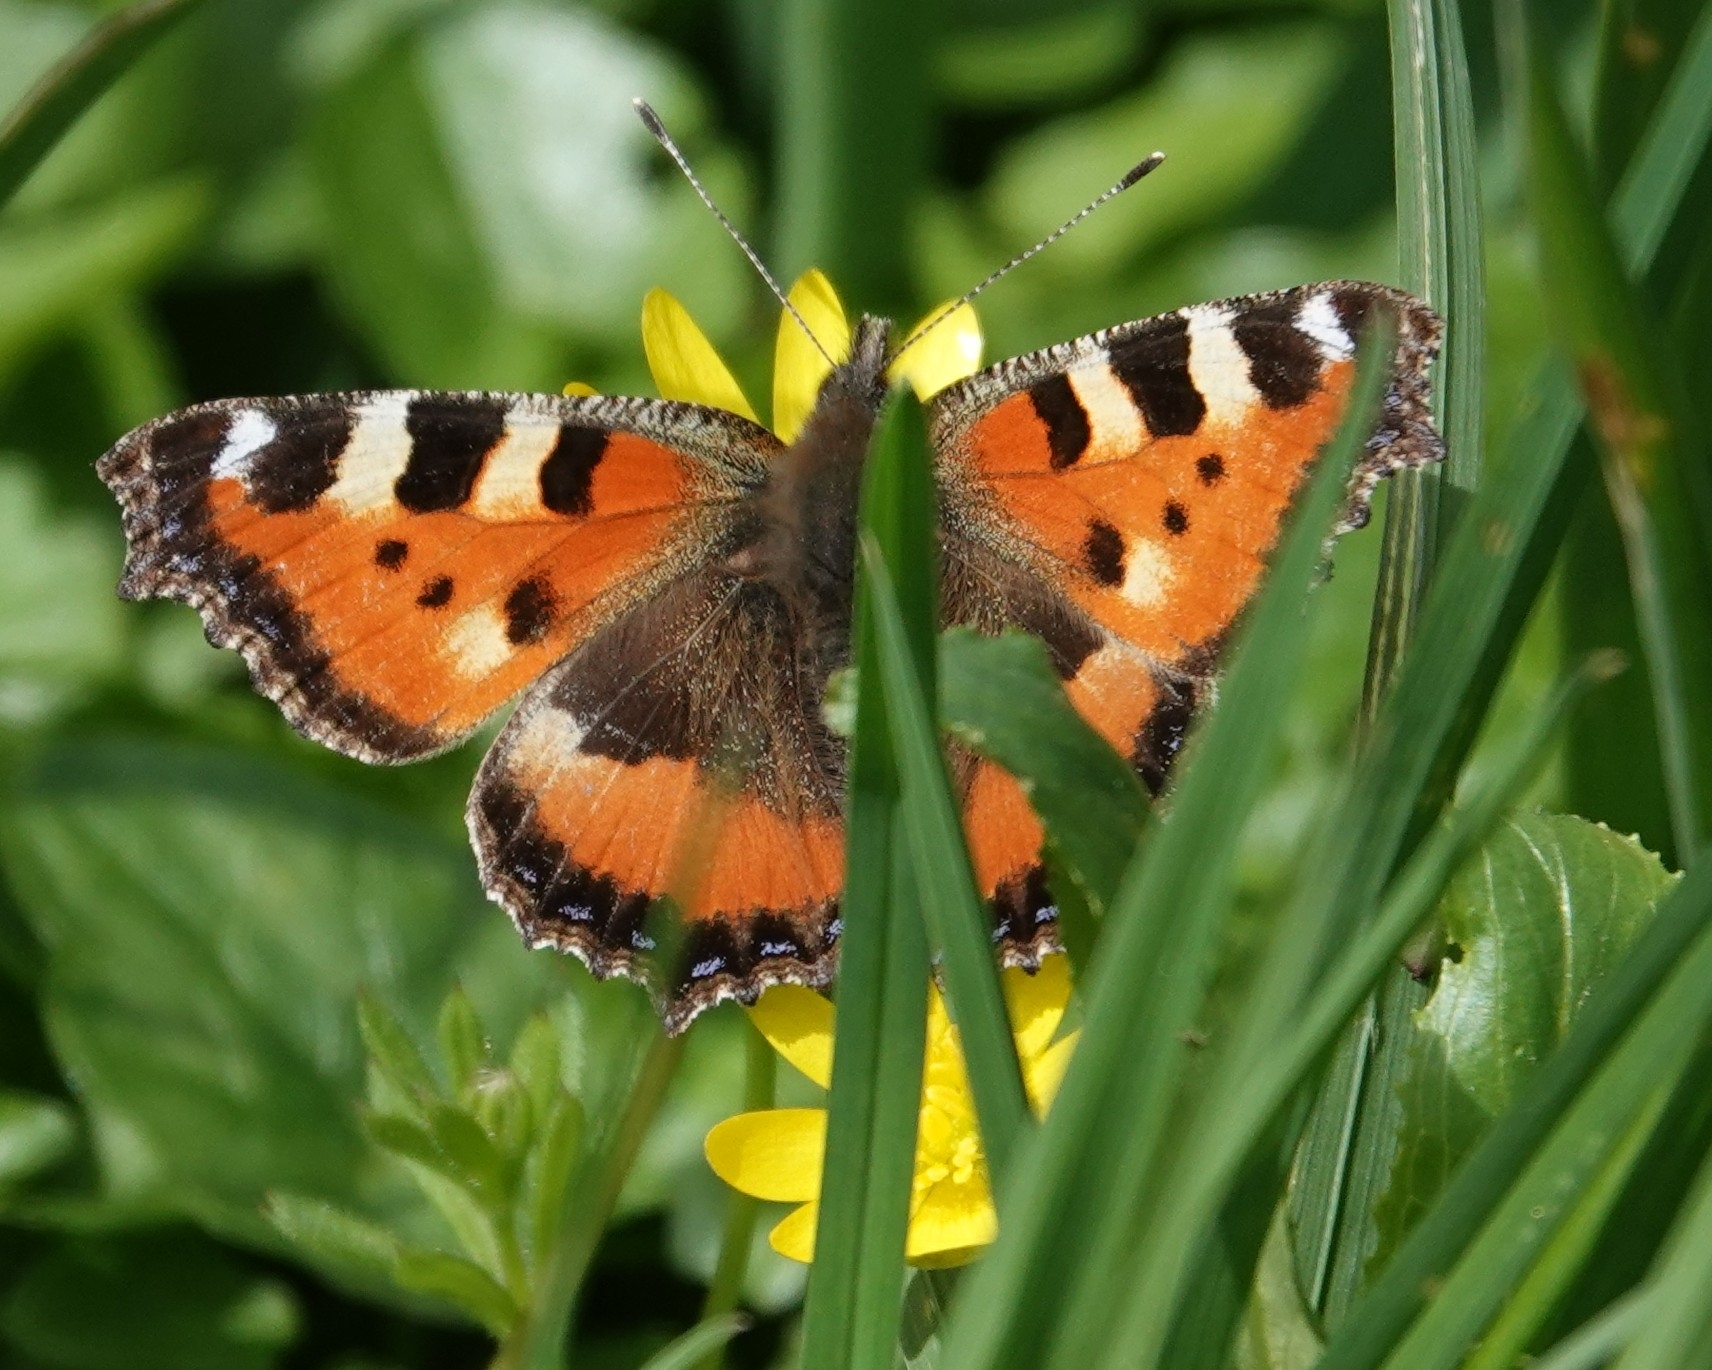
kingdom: Animalia
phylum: Arthropoda
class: Insecta
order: Lepidoptera
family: Nymphalidae
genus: Aglais
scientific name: Aglais urticae
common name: Small tortoiseshell
